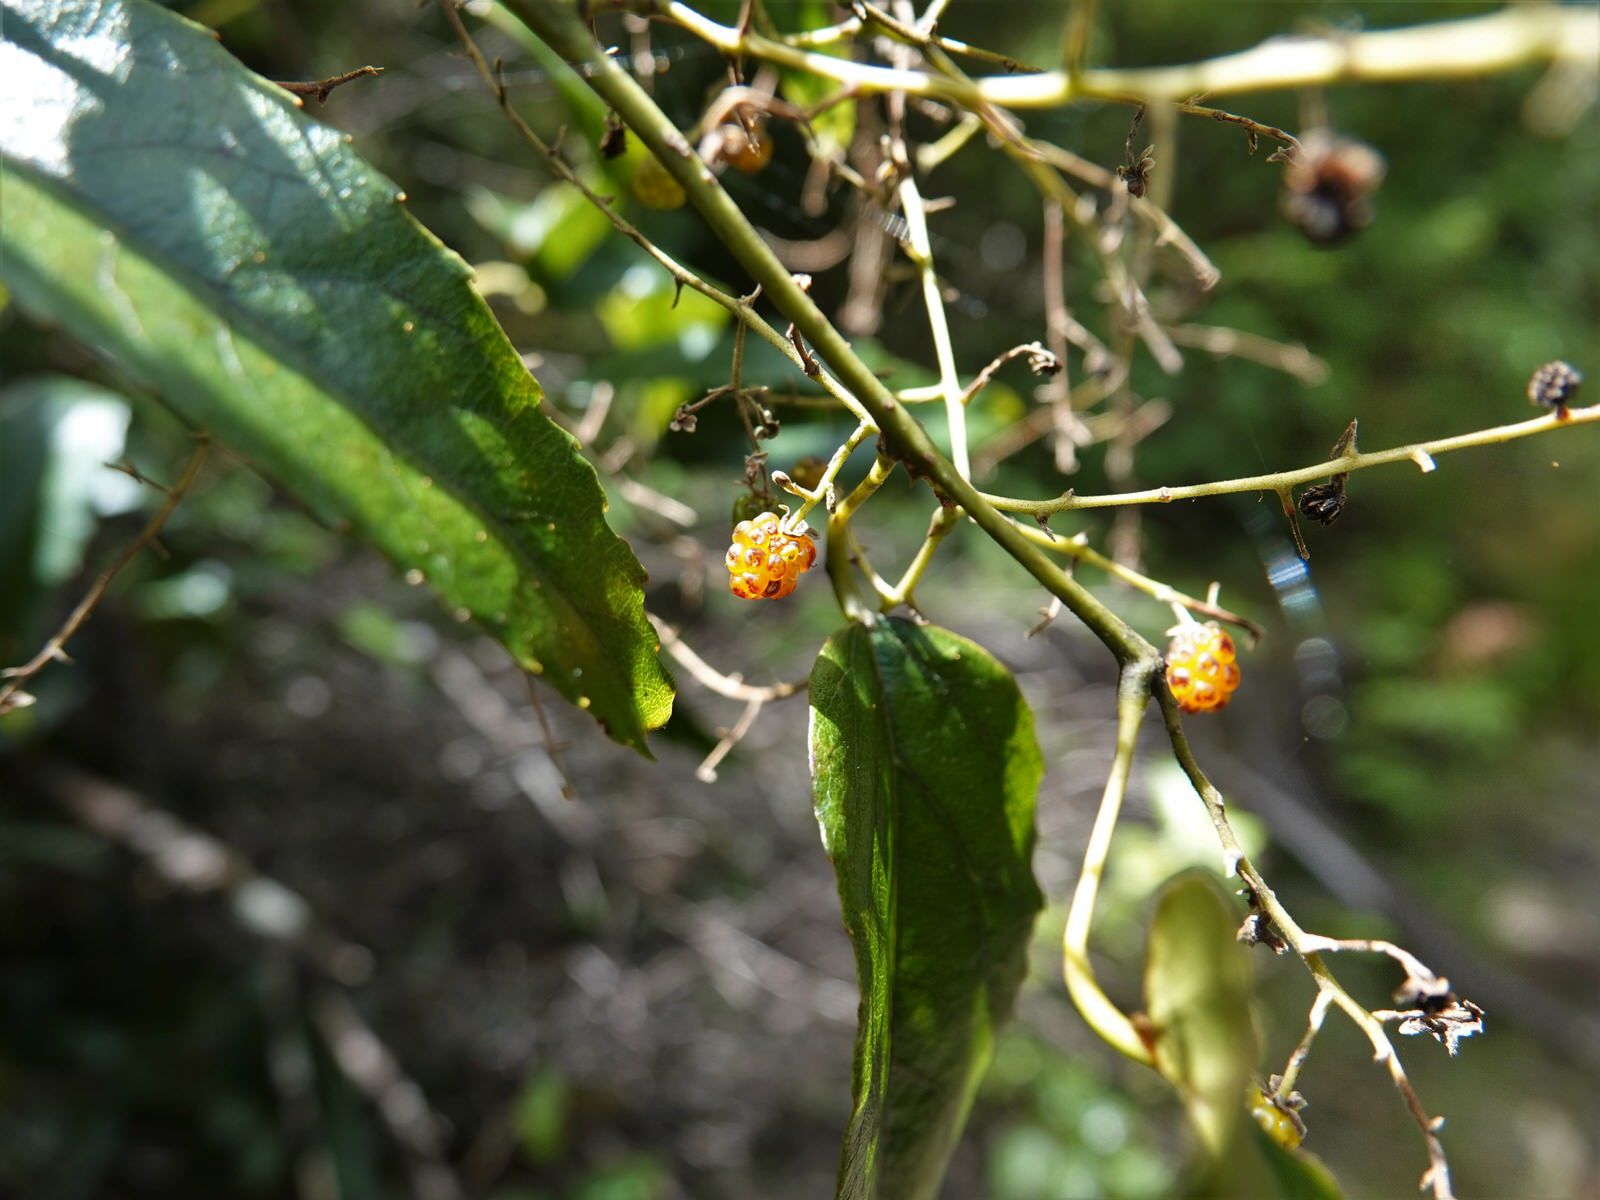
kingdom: Plantae
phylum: Tracheophyta
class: Magnoliopsida
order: Rosales
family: Rosaceae
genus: Rubus
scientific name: Rubus cissoides
